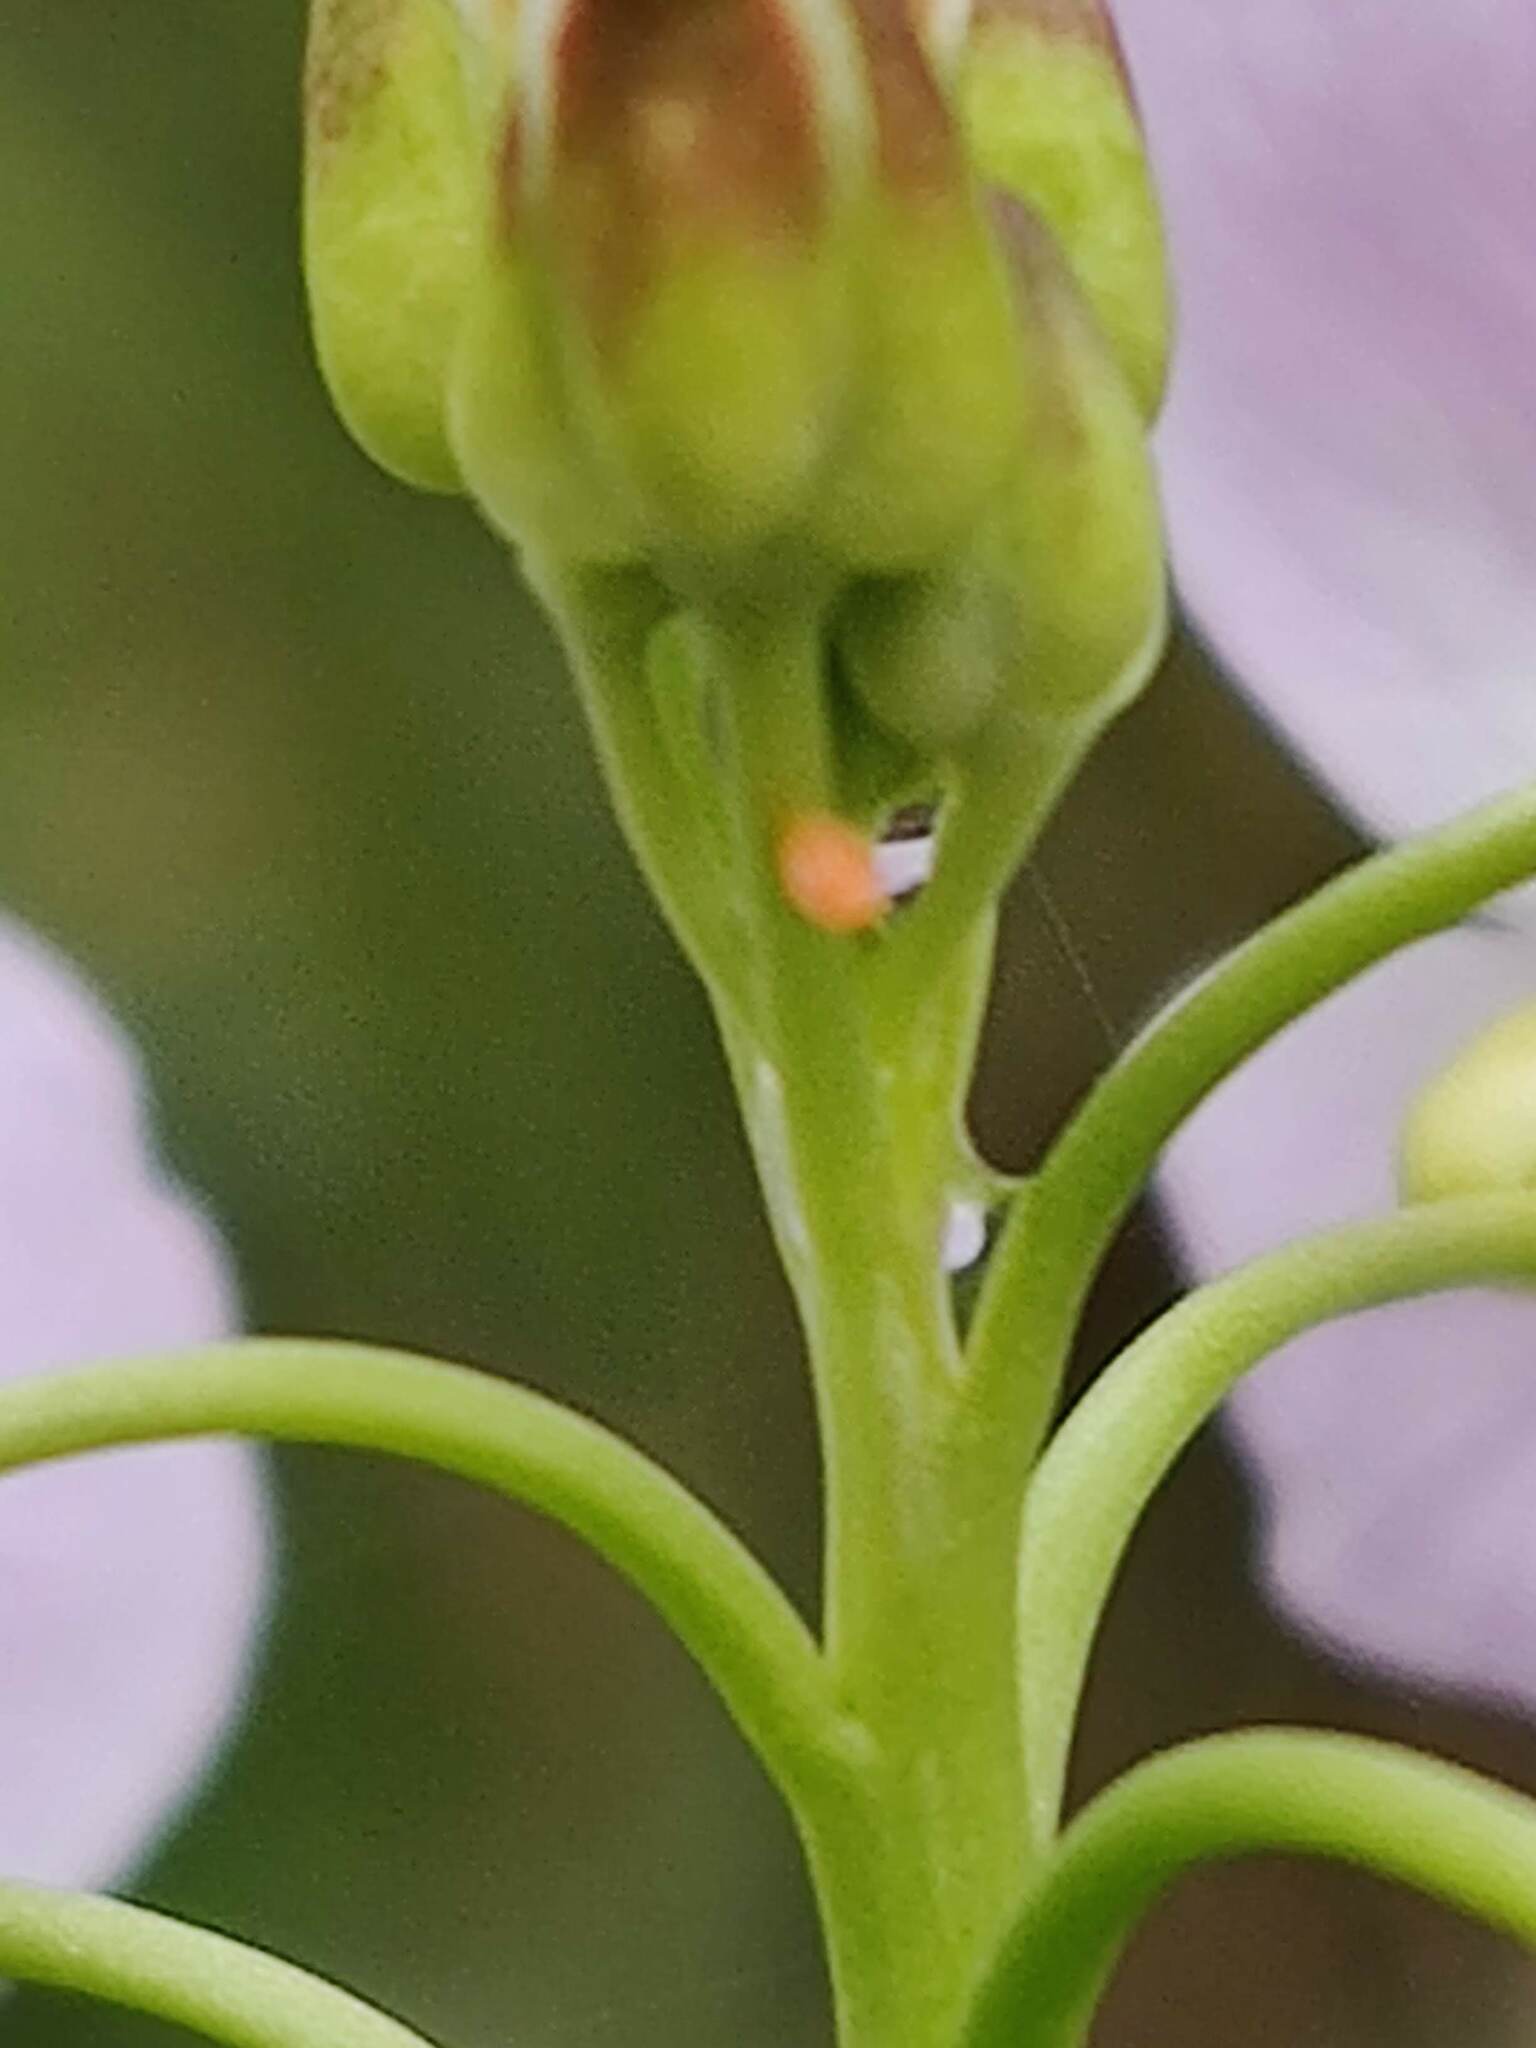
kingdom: Animalia
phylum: Arthropoda
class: Insecta
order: Lepidoptera
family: Pieridae
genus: Anthocharis
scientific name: Anthocharis cardamines
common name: Orange-tip
